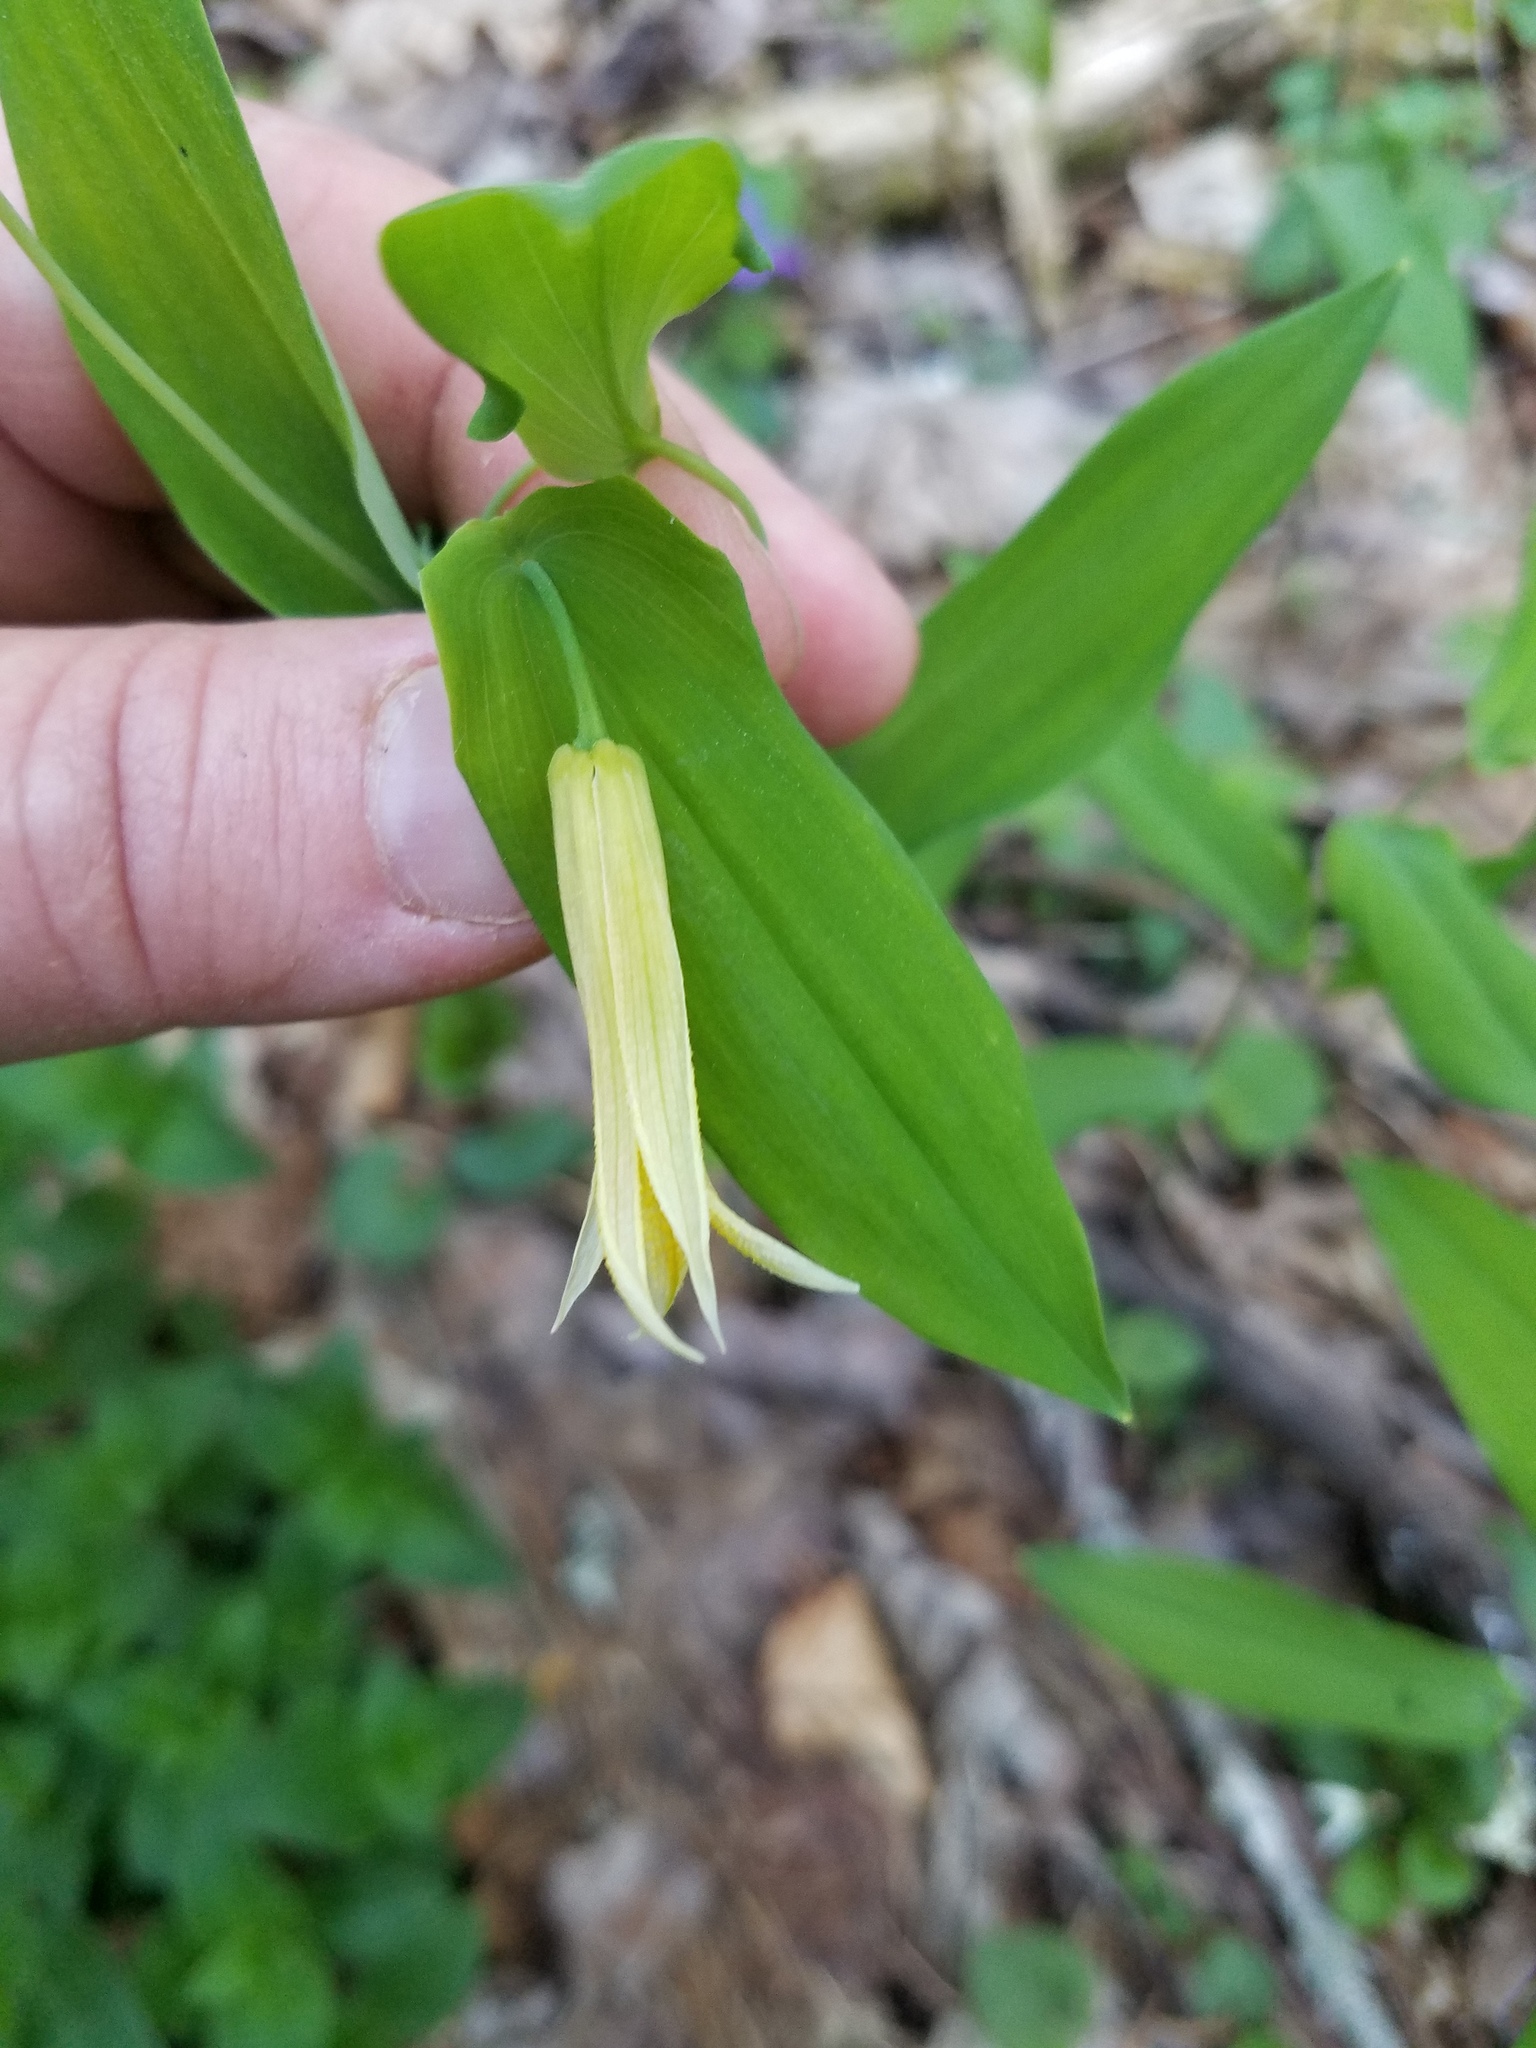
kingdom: Plantae
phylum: Tracheophyta
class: Liliopsida
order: Liliales
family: Colchicaceae
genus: Uvularia
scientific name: Uvularia perfoliata
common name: Perfoliate bellwort
